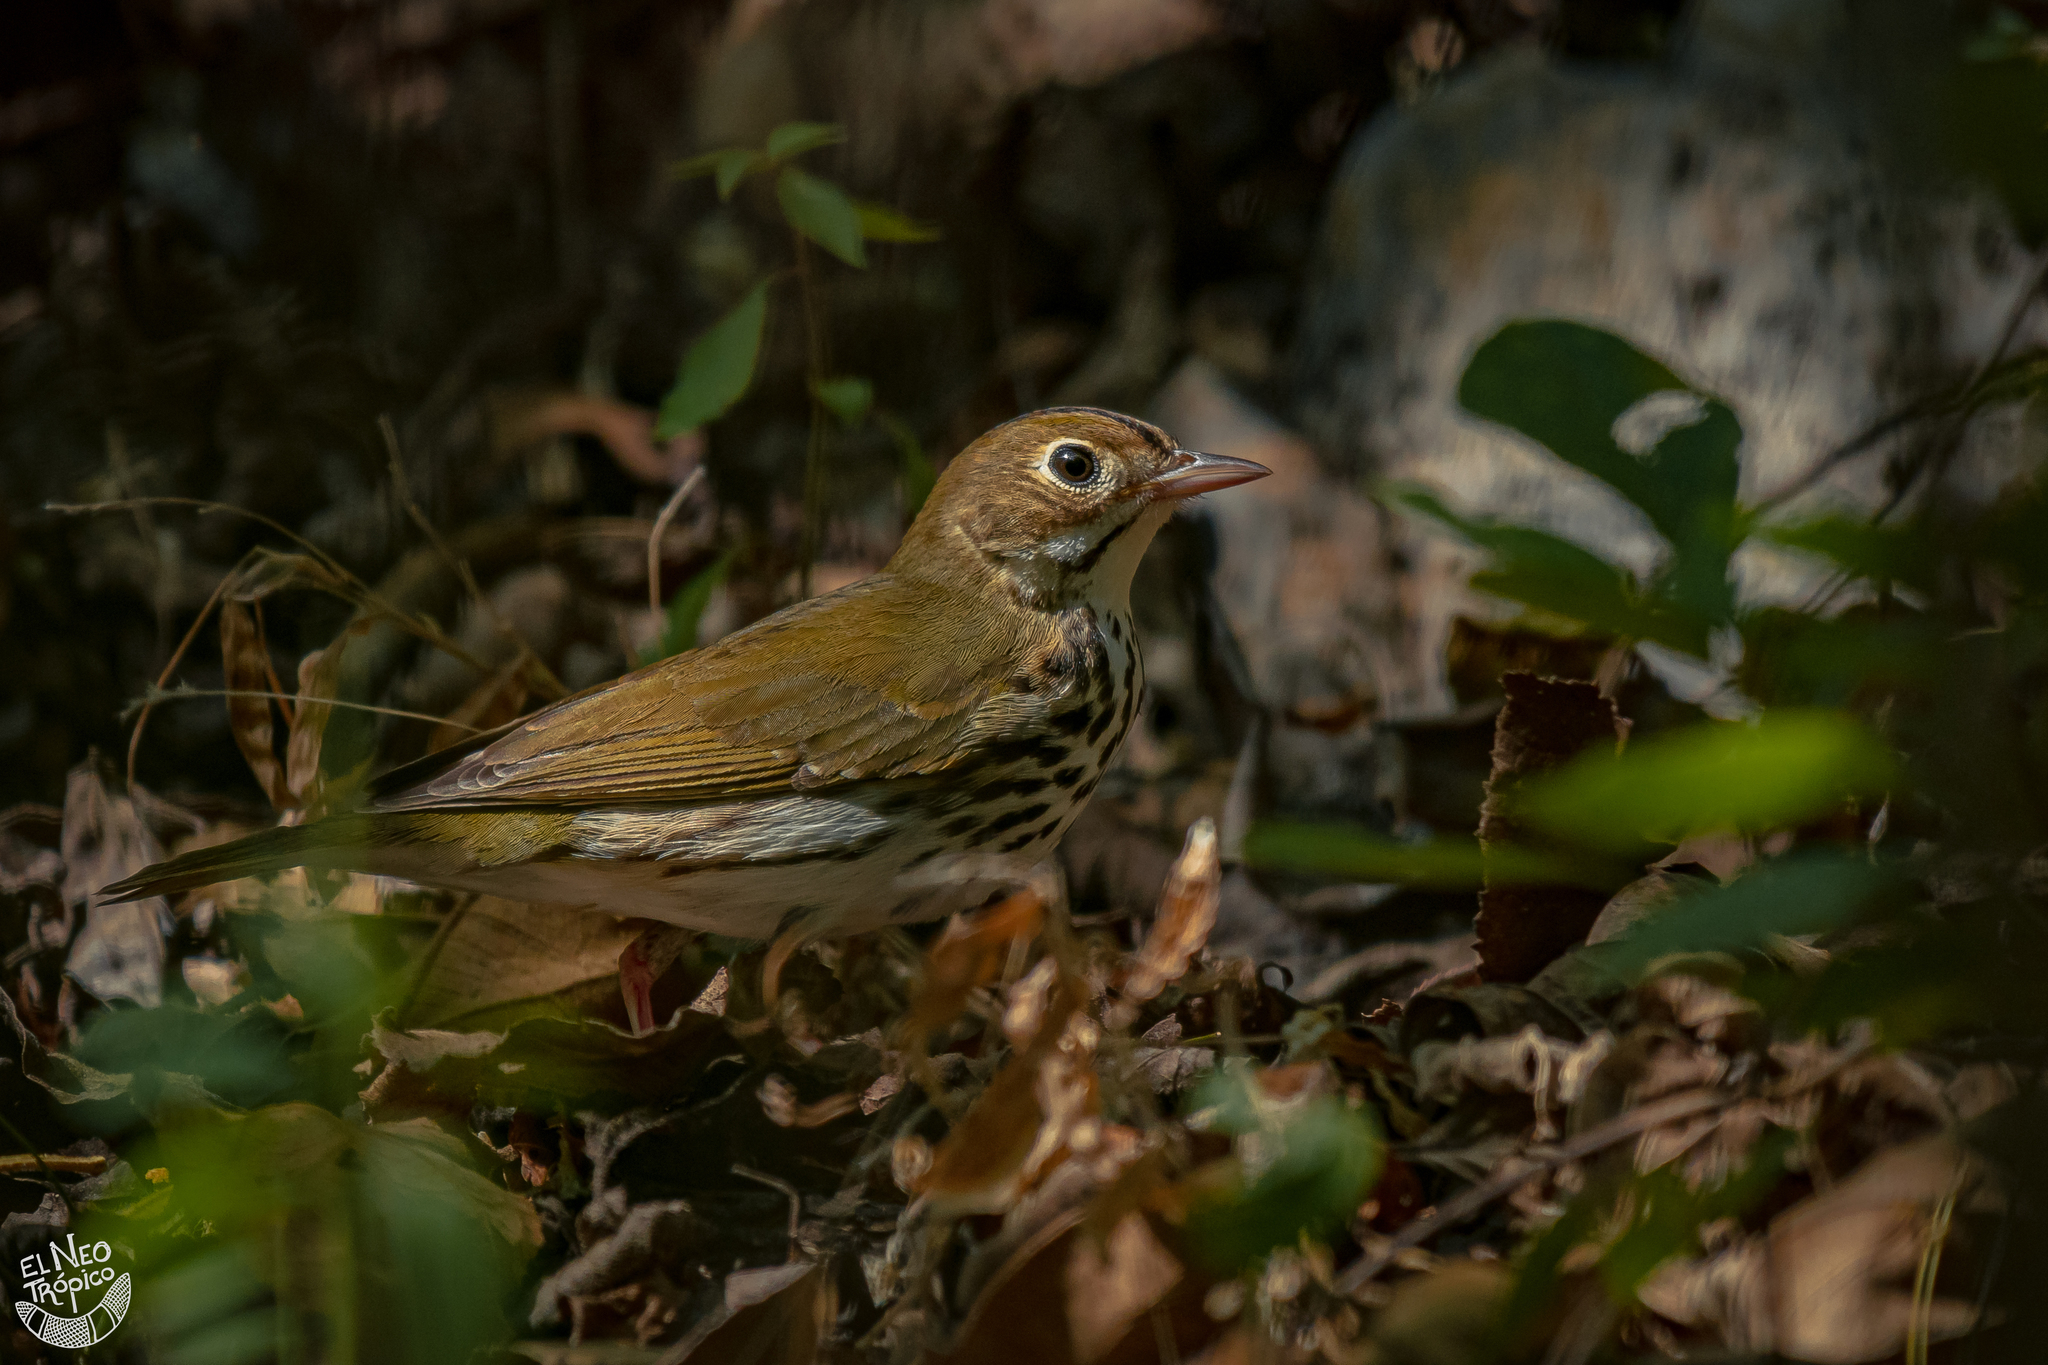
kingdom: Animalia
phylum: Chordata
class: Aves
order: Passeriformes
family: Parulidae
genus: Seiurus
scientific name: Seiurus aurocapilla
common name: Ovenbird
